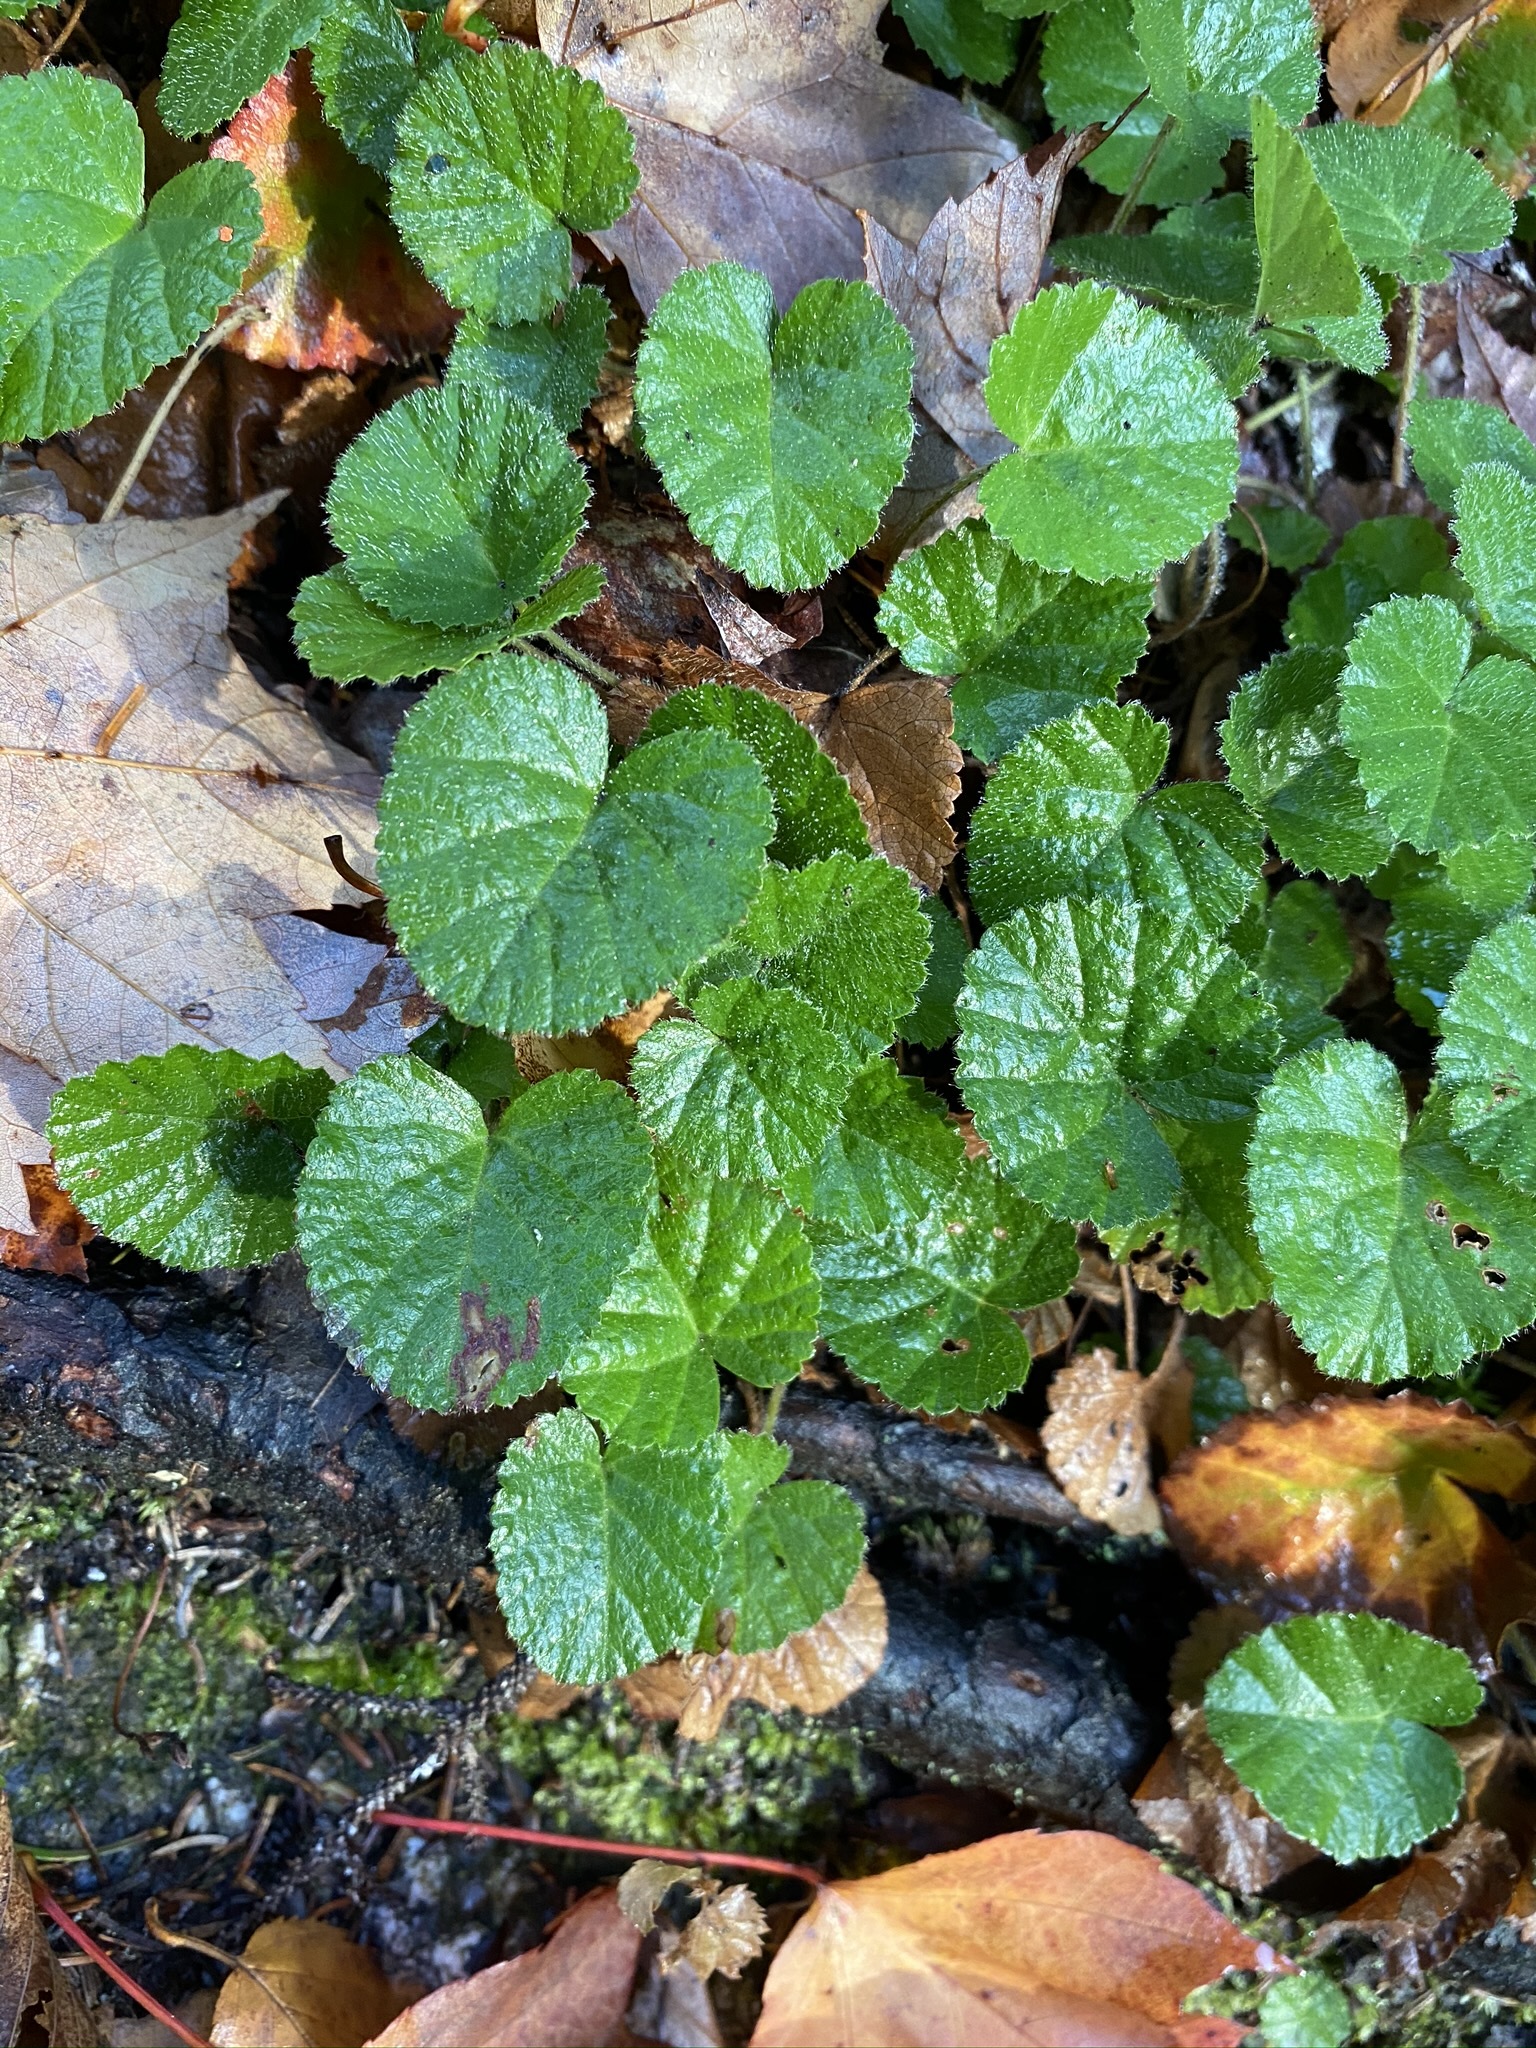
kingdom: Plantae
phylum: Tracheophyta
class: Magnoliopsida
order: Rosales
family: Rosaceae
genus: Dalibarda
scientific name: Dalibarda repens
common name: Dewdrop
